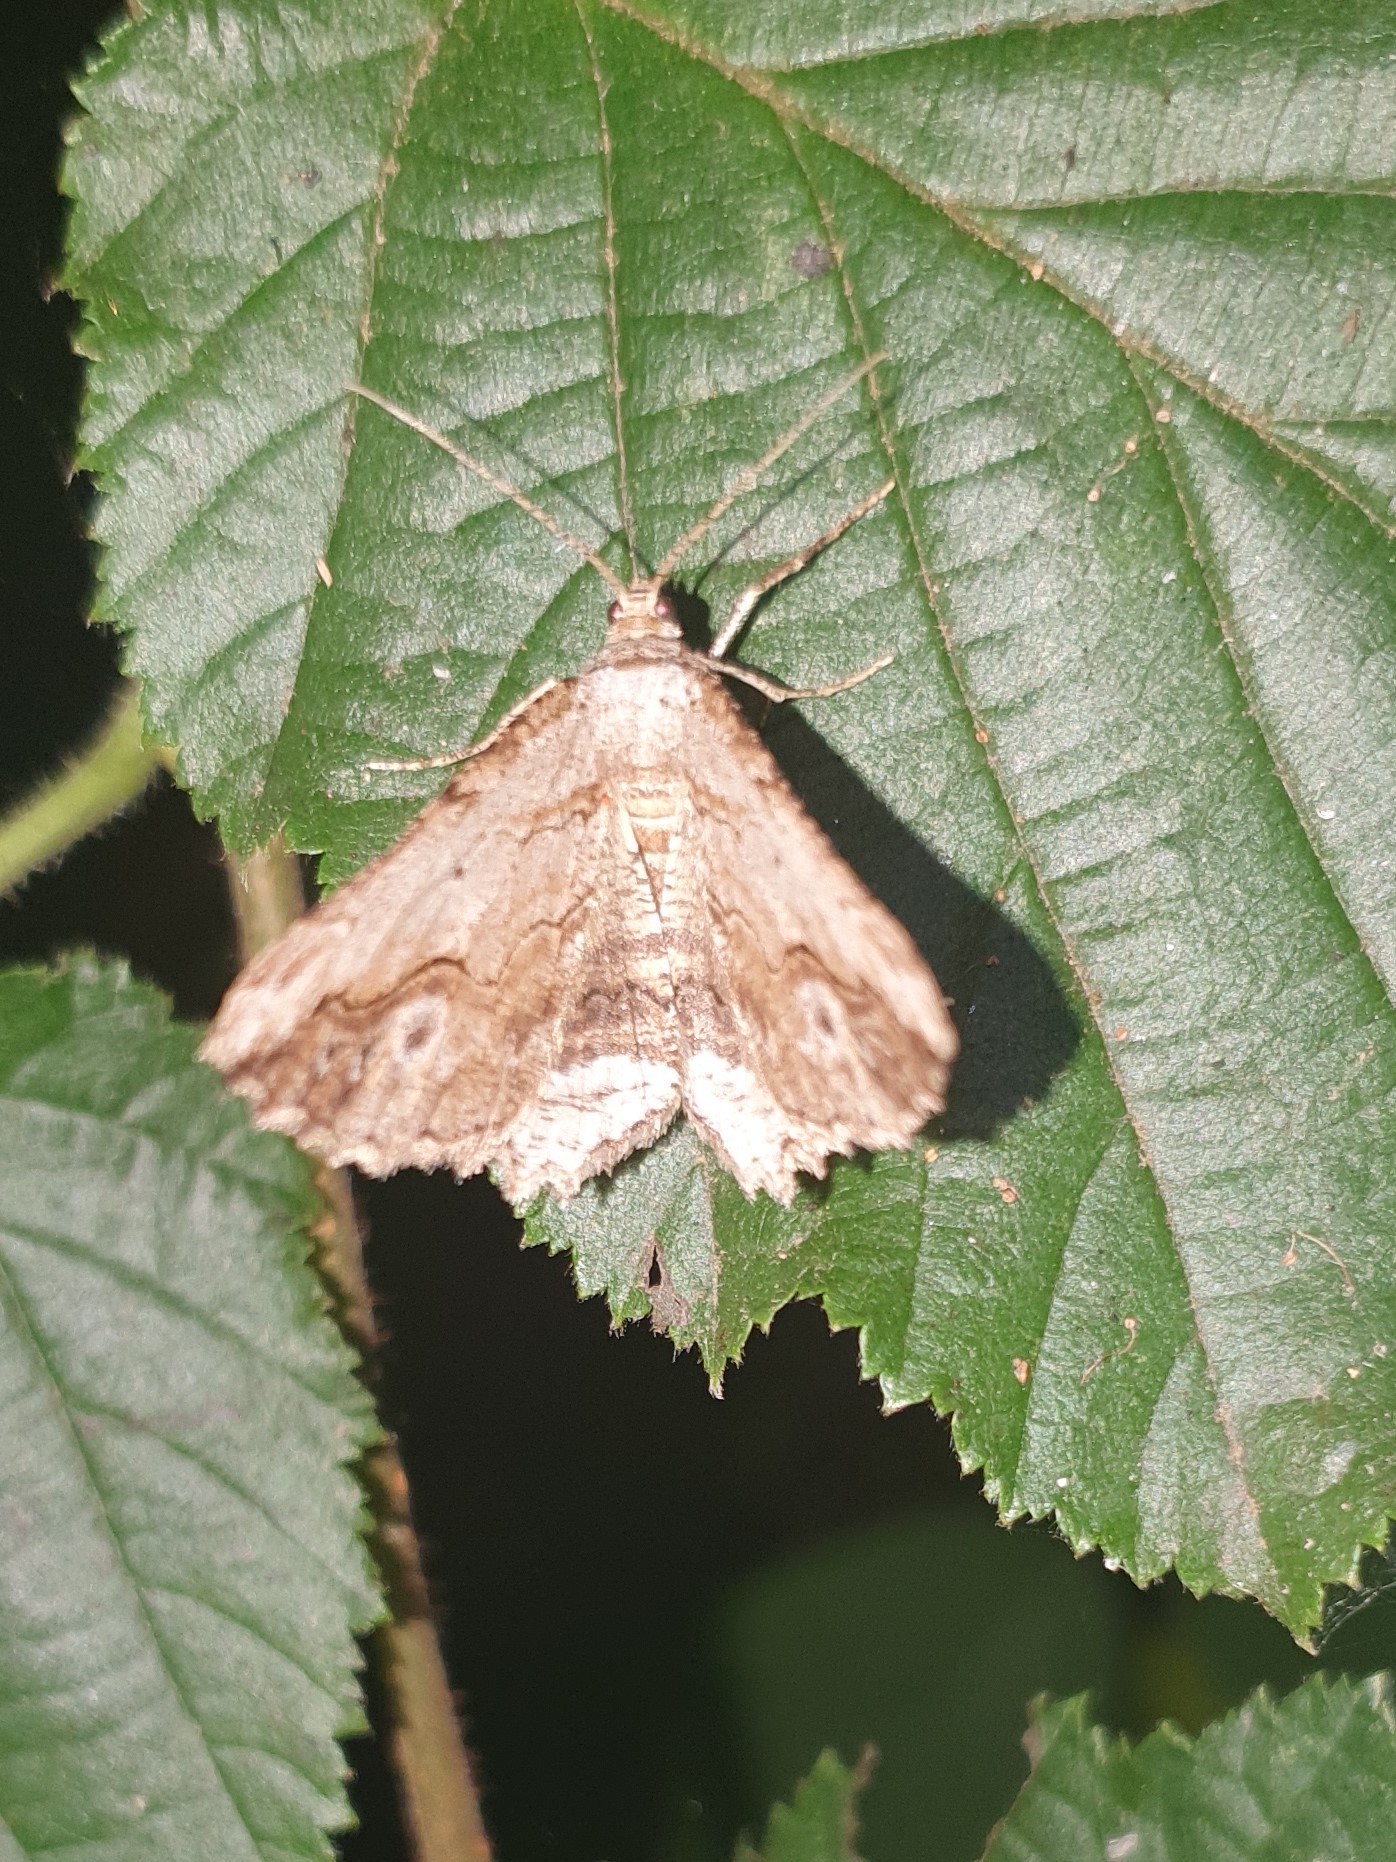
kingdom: Animalia
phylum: Arthropoda
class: Insecta
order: Lepidoptera
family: Geometridae
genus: Menophra
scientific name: Menophra abruptaria
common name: Waved umber
